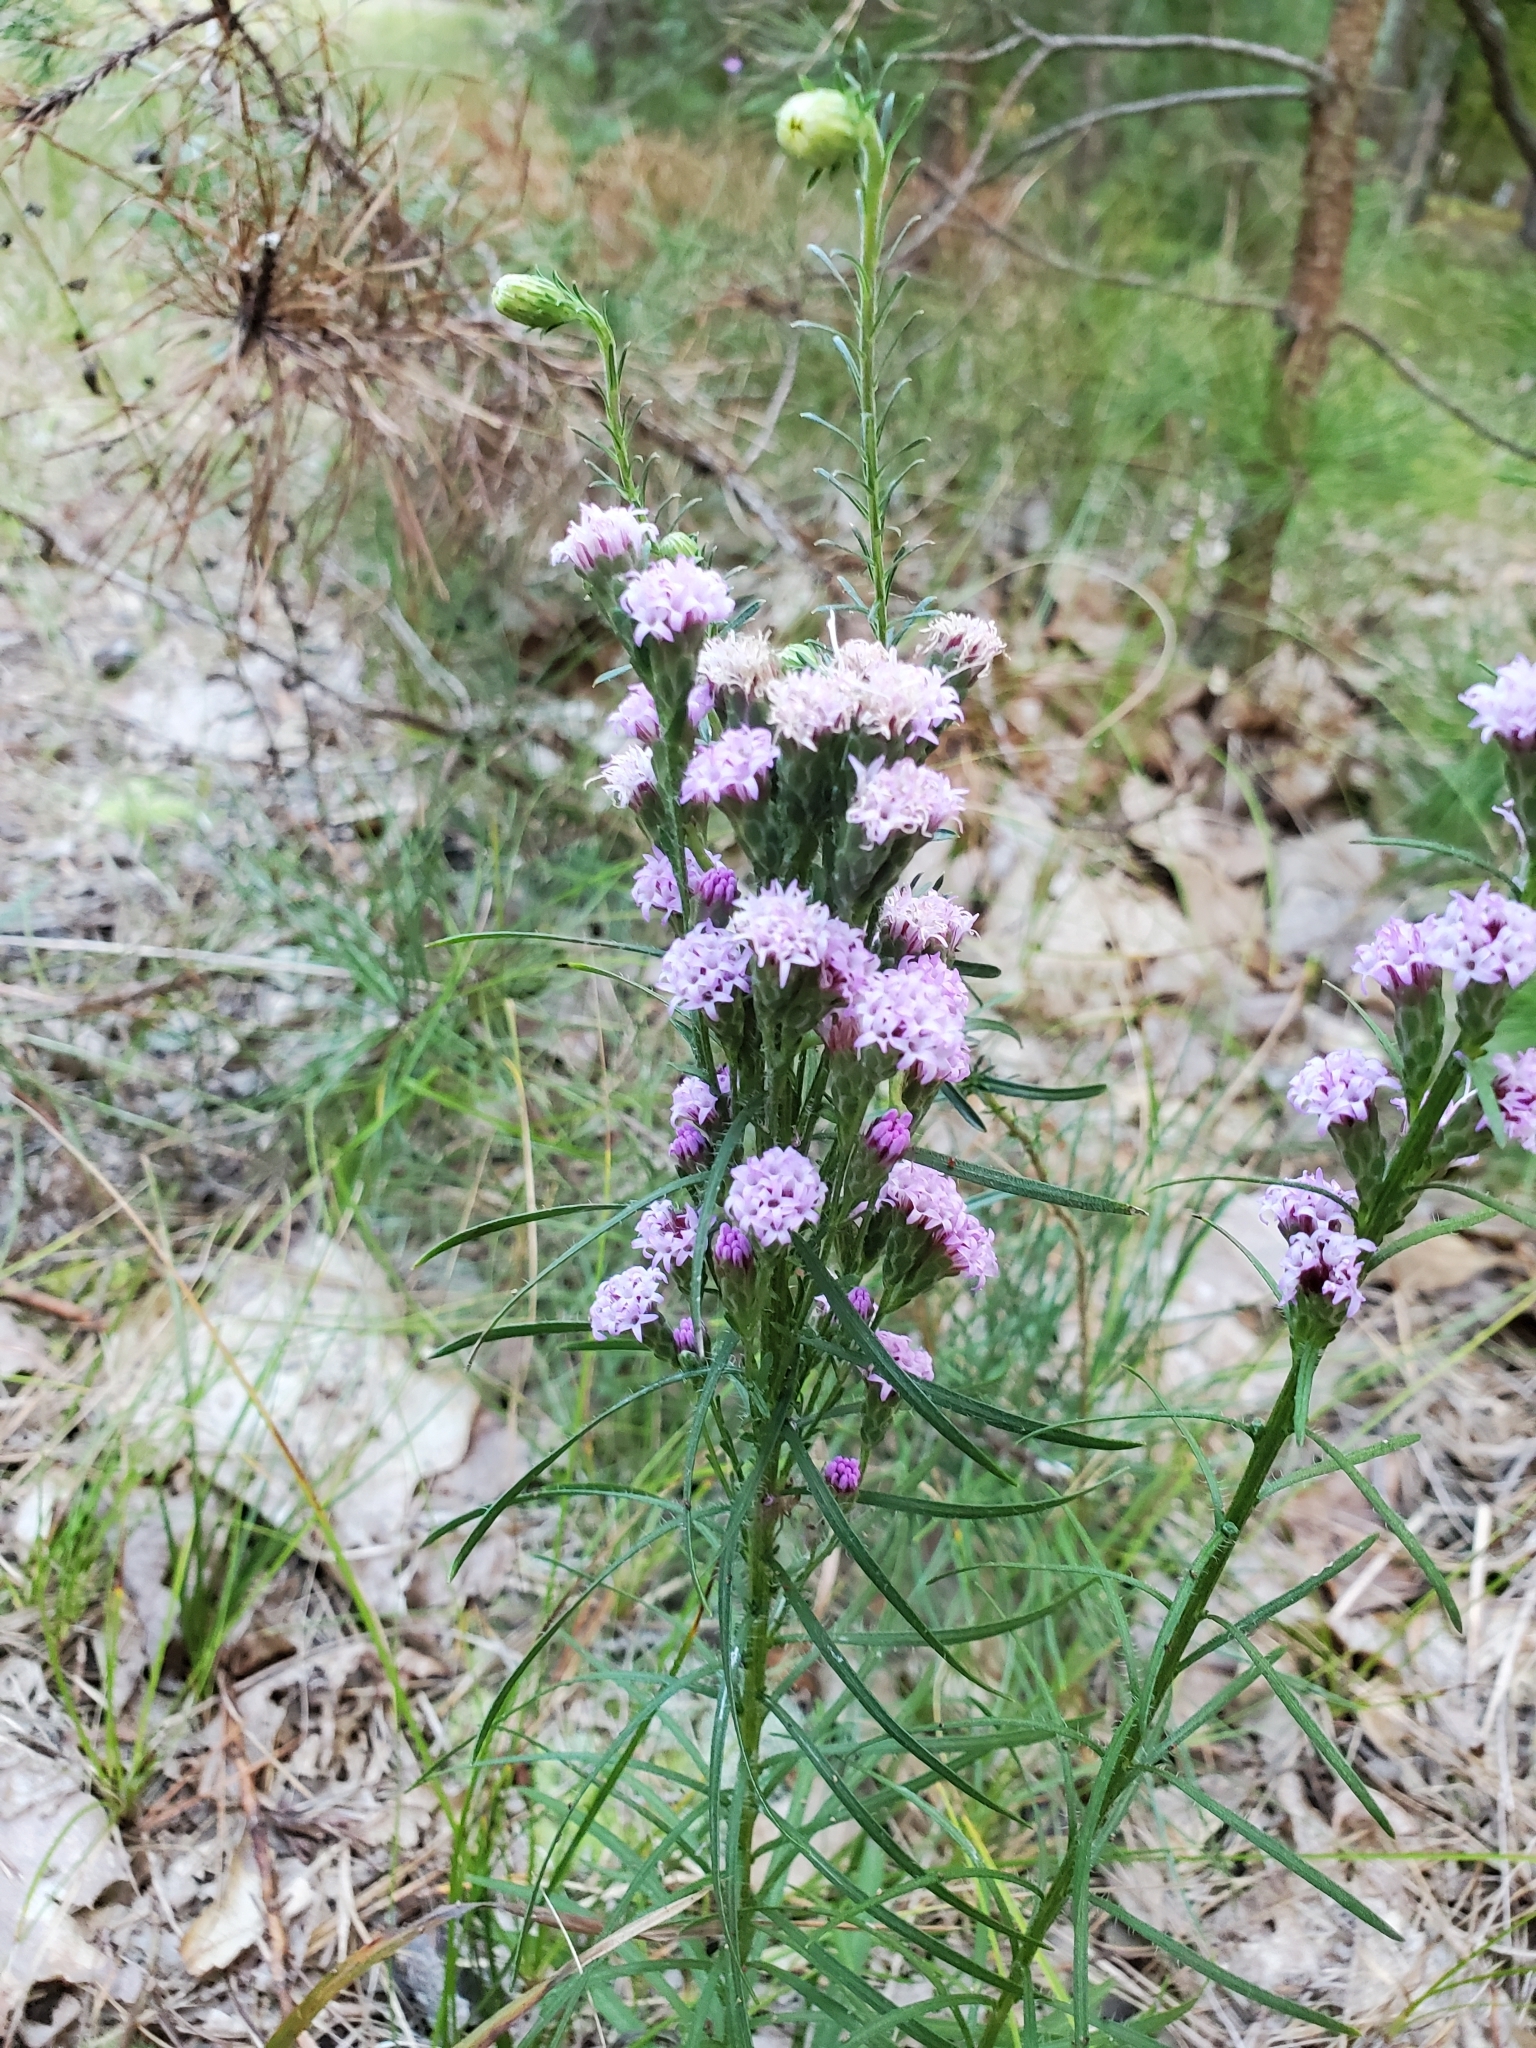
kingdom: Plantae
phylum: Tracheophyta
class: Magnoliopsida
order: Asterales
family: Asteraceae
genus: Liatris
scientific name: Liatris pilosa
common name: Grass-leaf gayfeather
